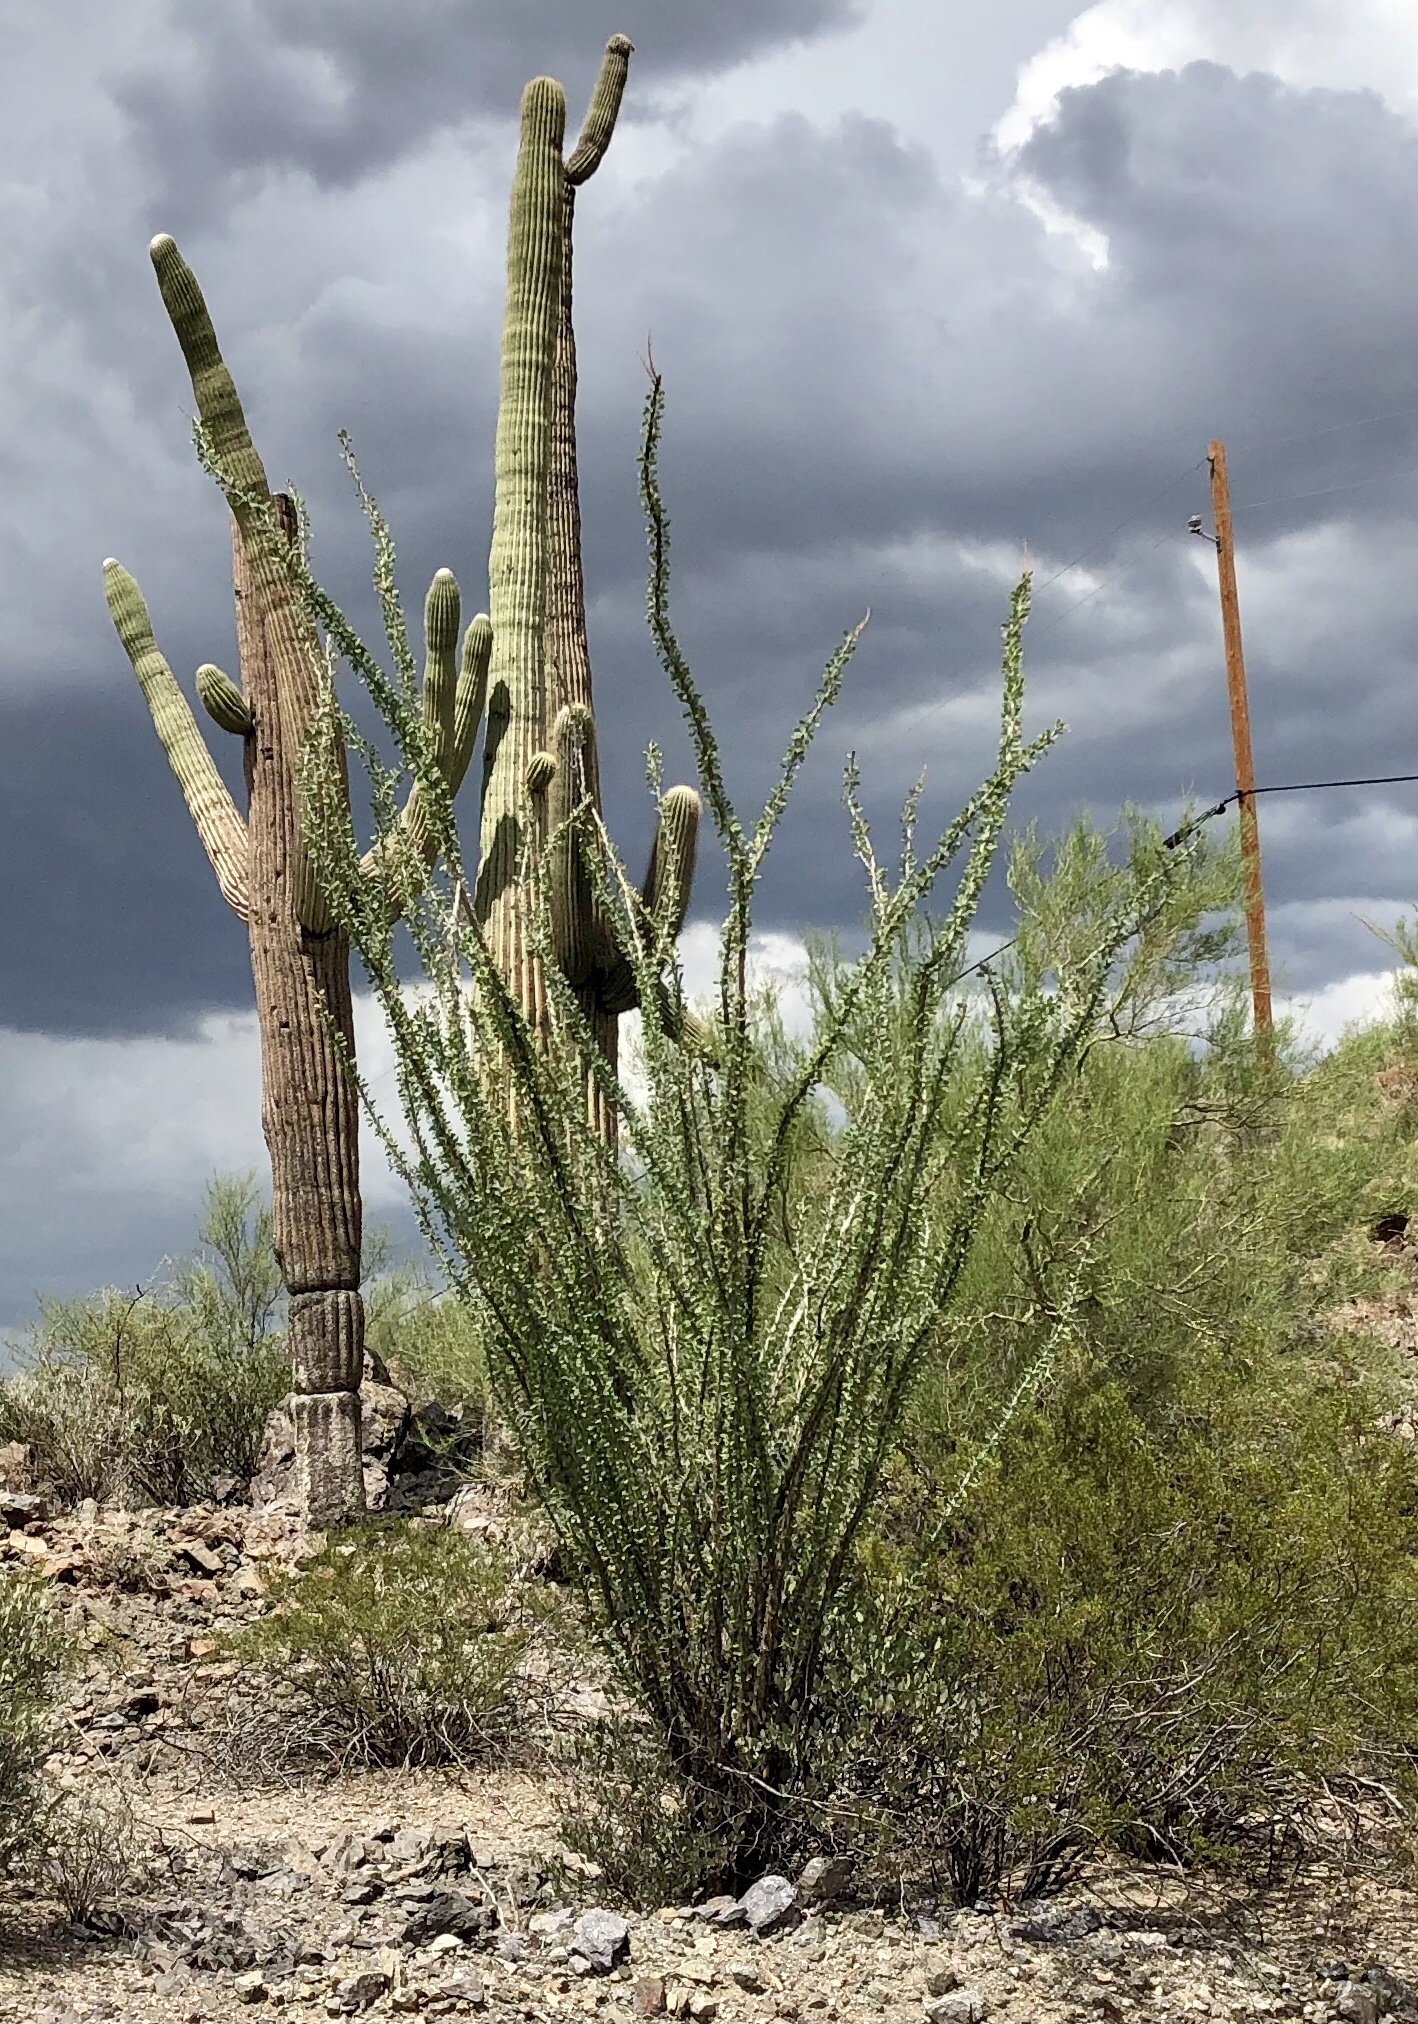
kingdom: Plantae
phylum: Tracheophyta
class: Magnoliopsida
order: Ericales
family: Fouquieriaceae
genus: Fouquieria
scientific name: Fouquieria splendens
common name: Vine-cactus
